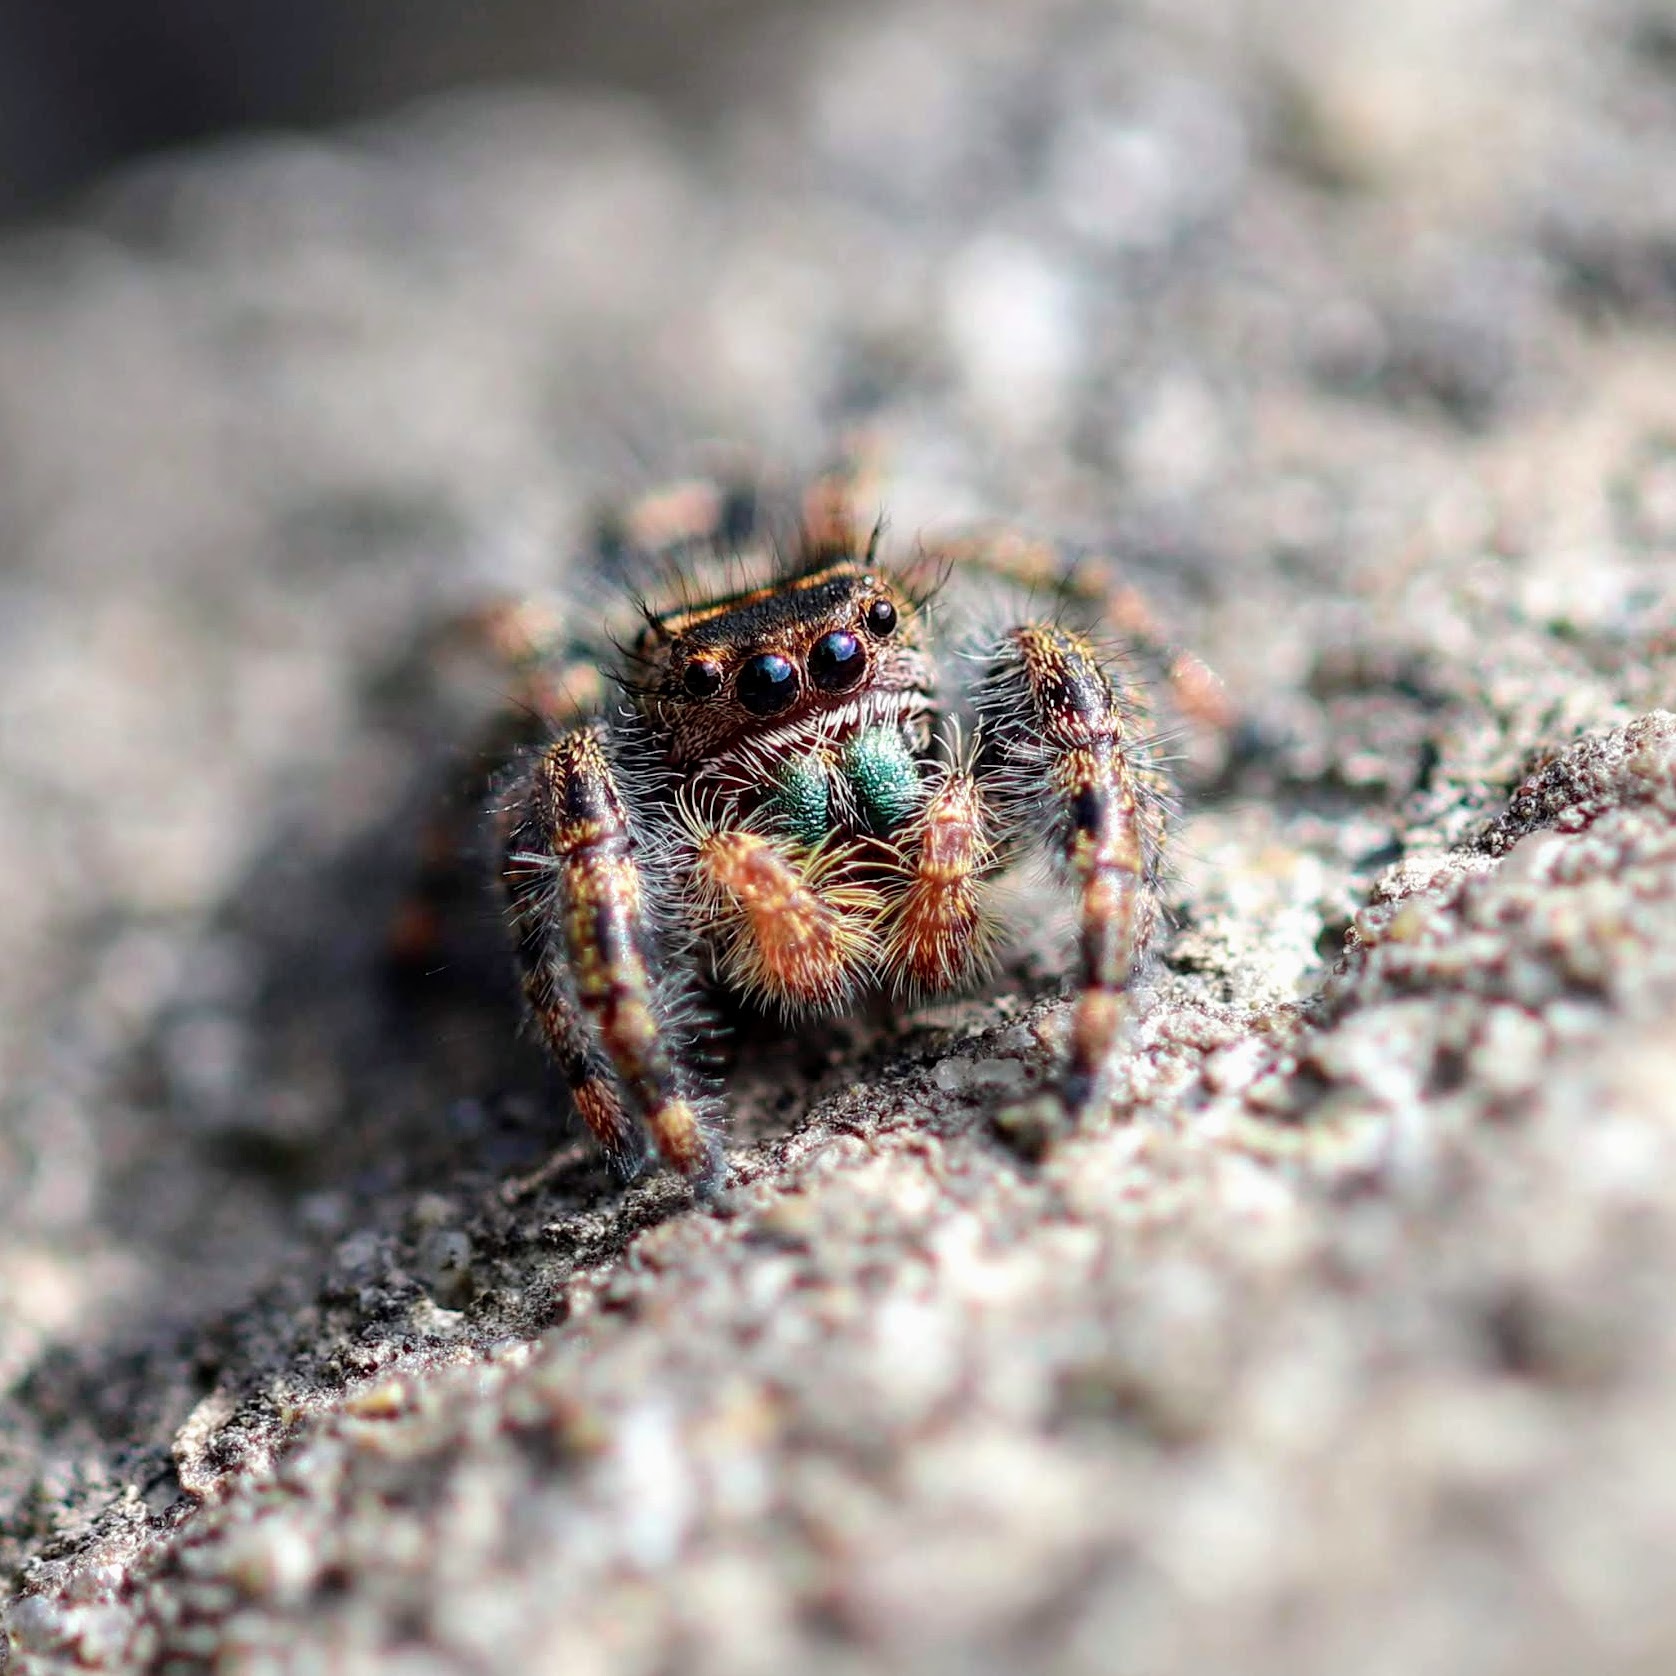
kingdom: Animalia
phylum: Arthropoda
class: Arachnida
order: Araneae
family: Salticidae
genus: Phidippus
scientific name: Phidippus audax
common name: Bold jumper
